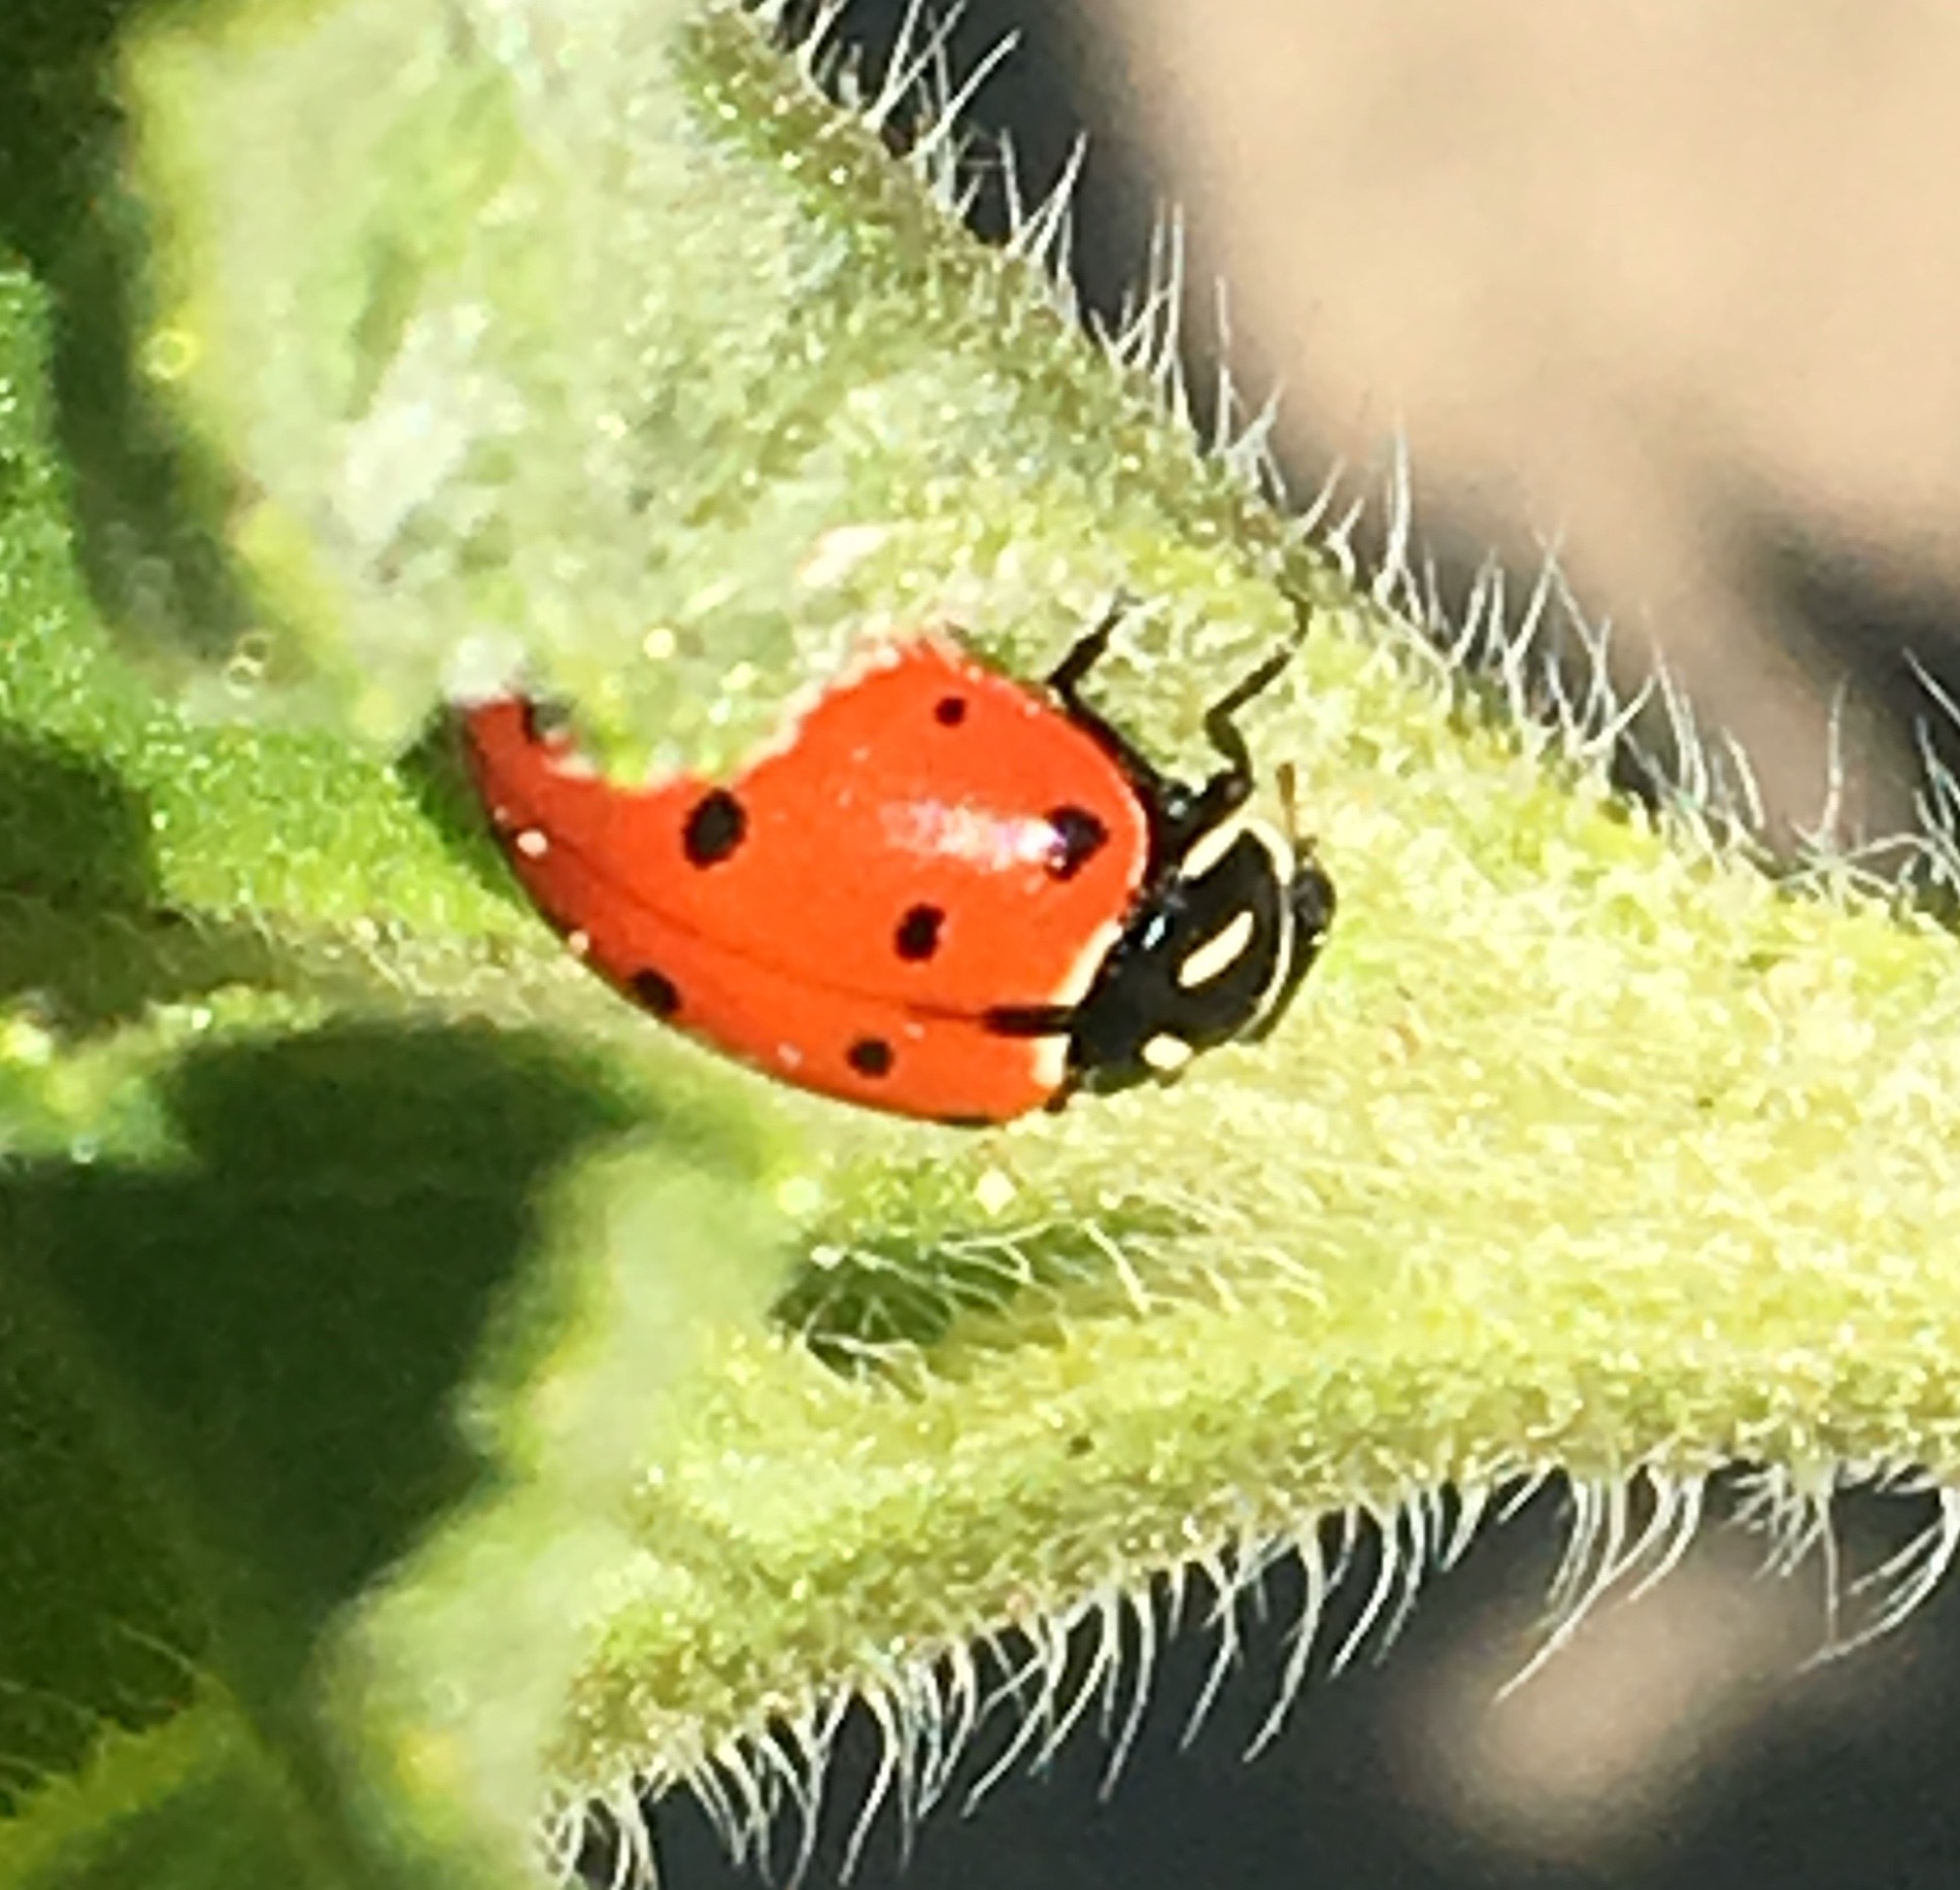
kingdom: Animalia
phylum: Arthropoda
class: Insecta
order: Coleoptera
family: Coccinellidae
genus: Hippodamia
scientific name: Hippodamia convergens
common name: Convergent lady beetle
